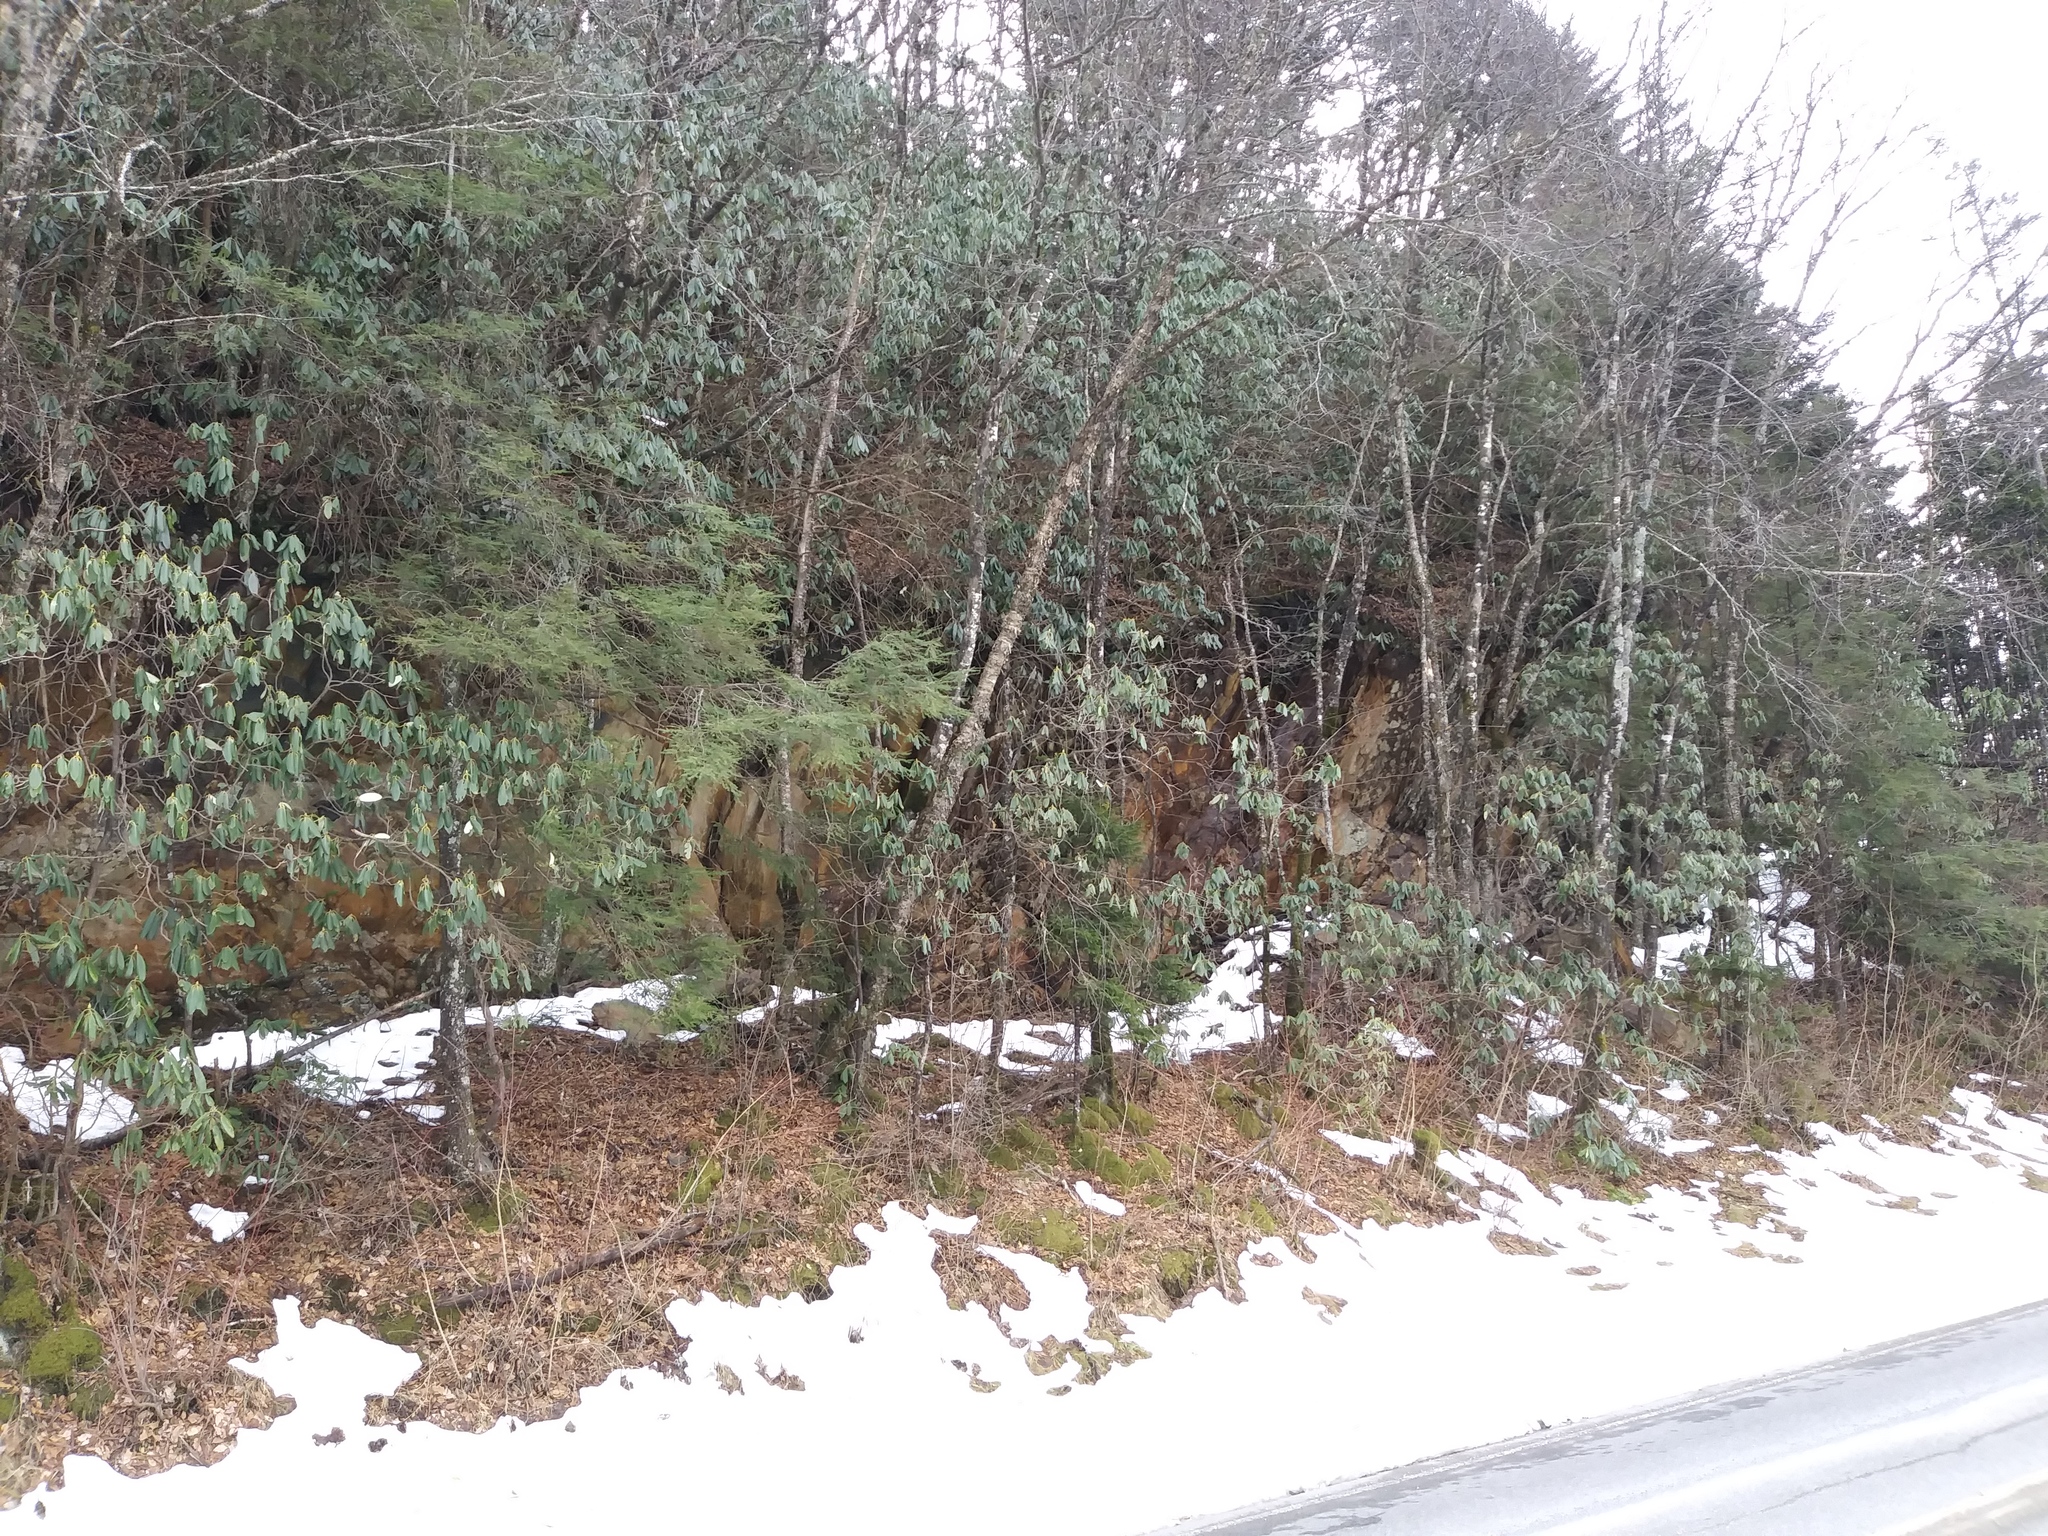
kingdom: Plantae
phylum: Tracheophyta
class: Pinopsida
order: Pinales
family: Pinaceae
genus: Tsuga
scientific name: Tsuga canadensis
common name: Eastern hemlock
